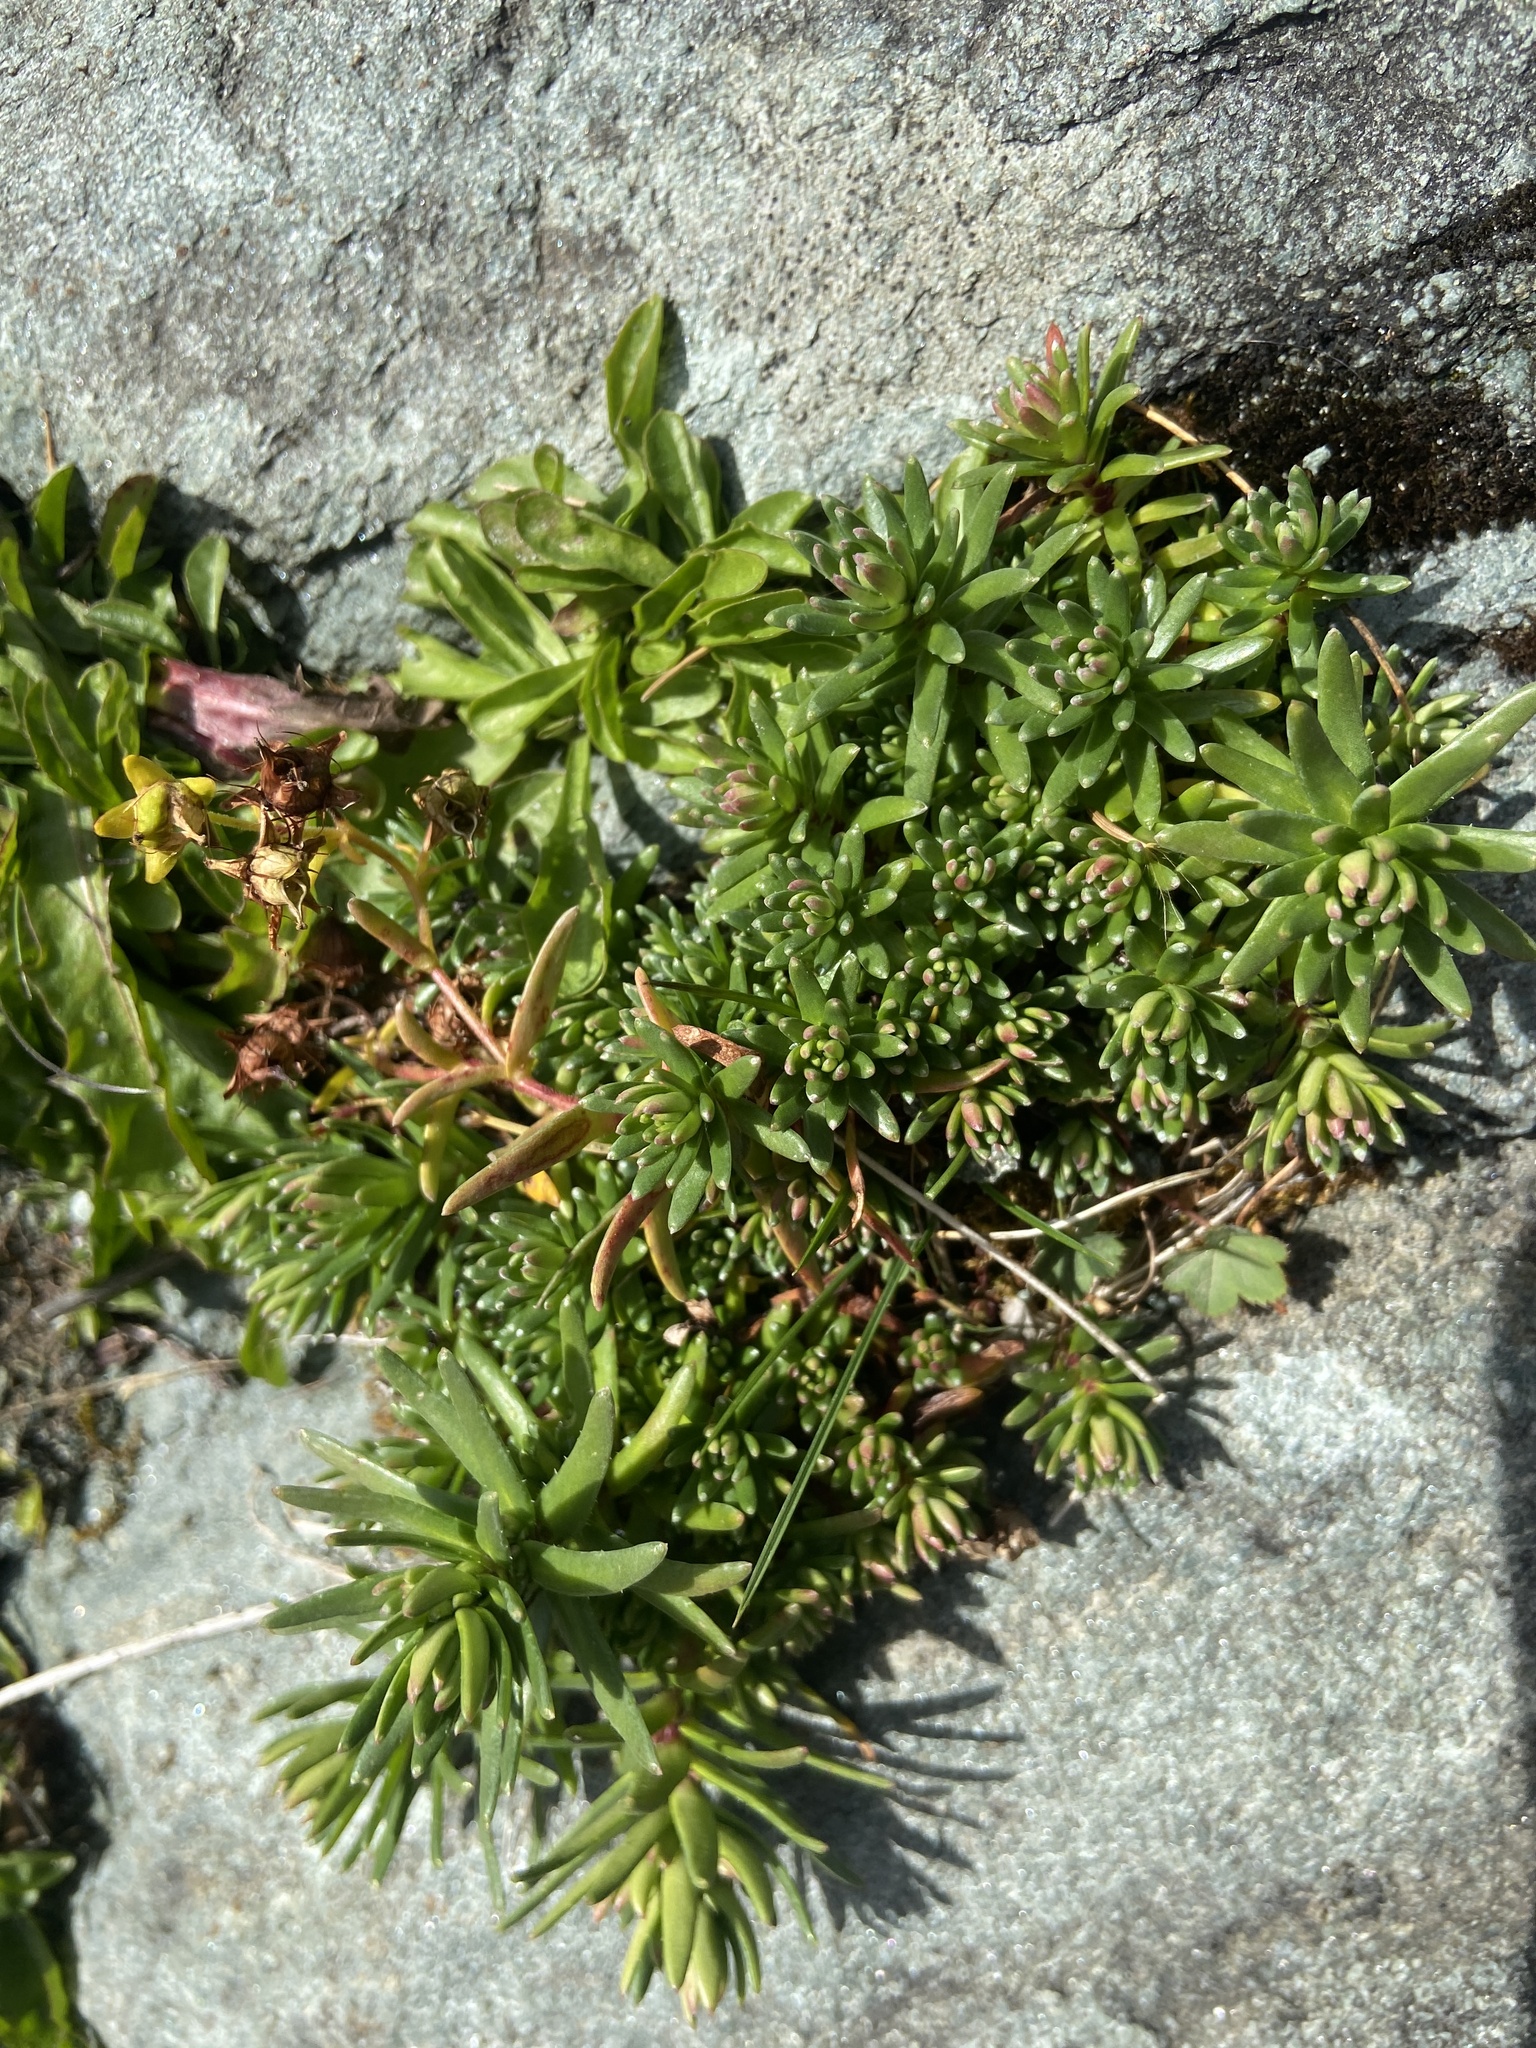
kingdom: Plantae
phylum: Tracheophyta
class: Magnoliopsida
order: Saxifragales
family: Saxifragaceae
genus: Saxifraga
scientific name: Saxifraga aizoides
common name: Yellow mountain saxifrage
